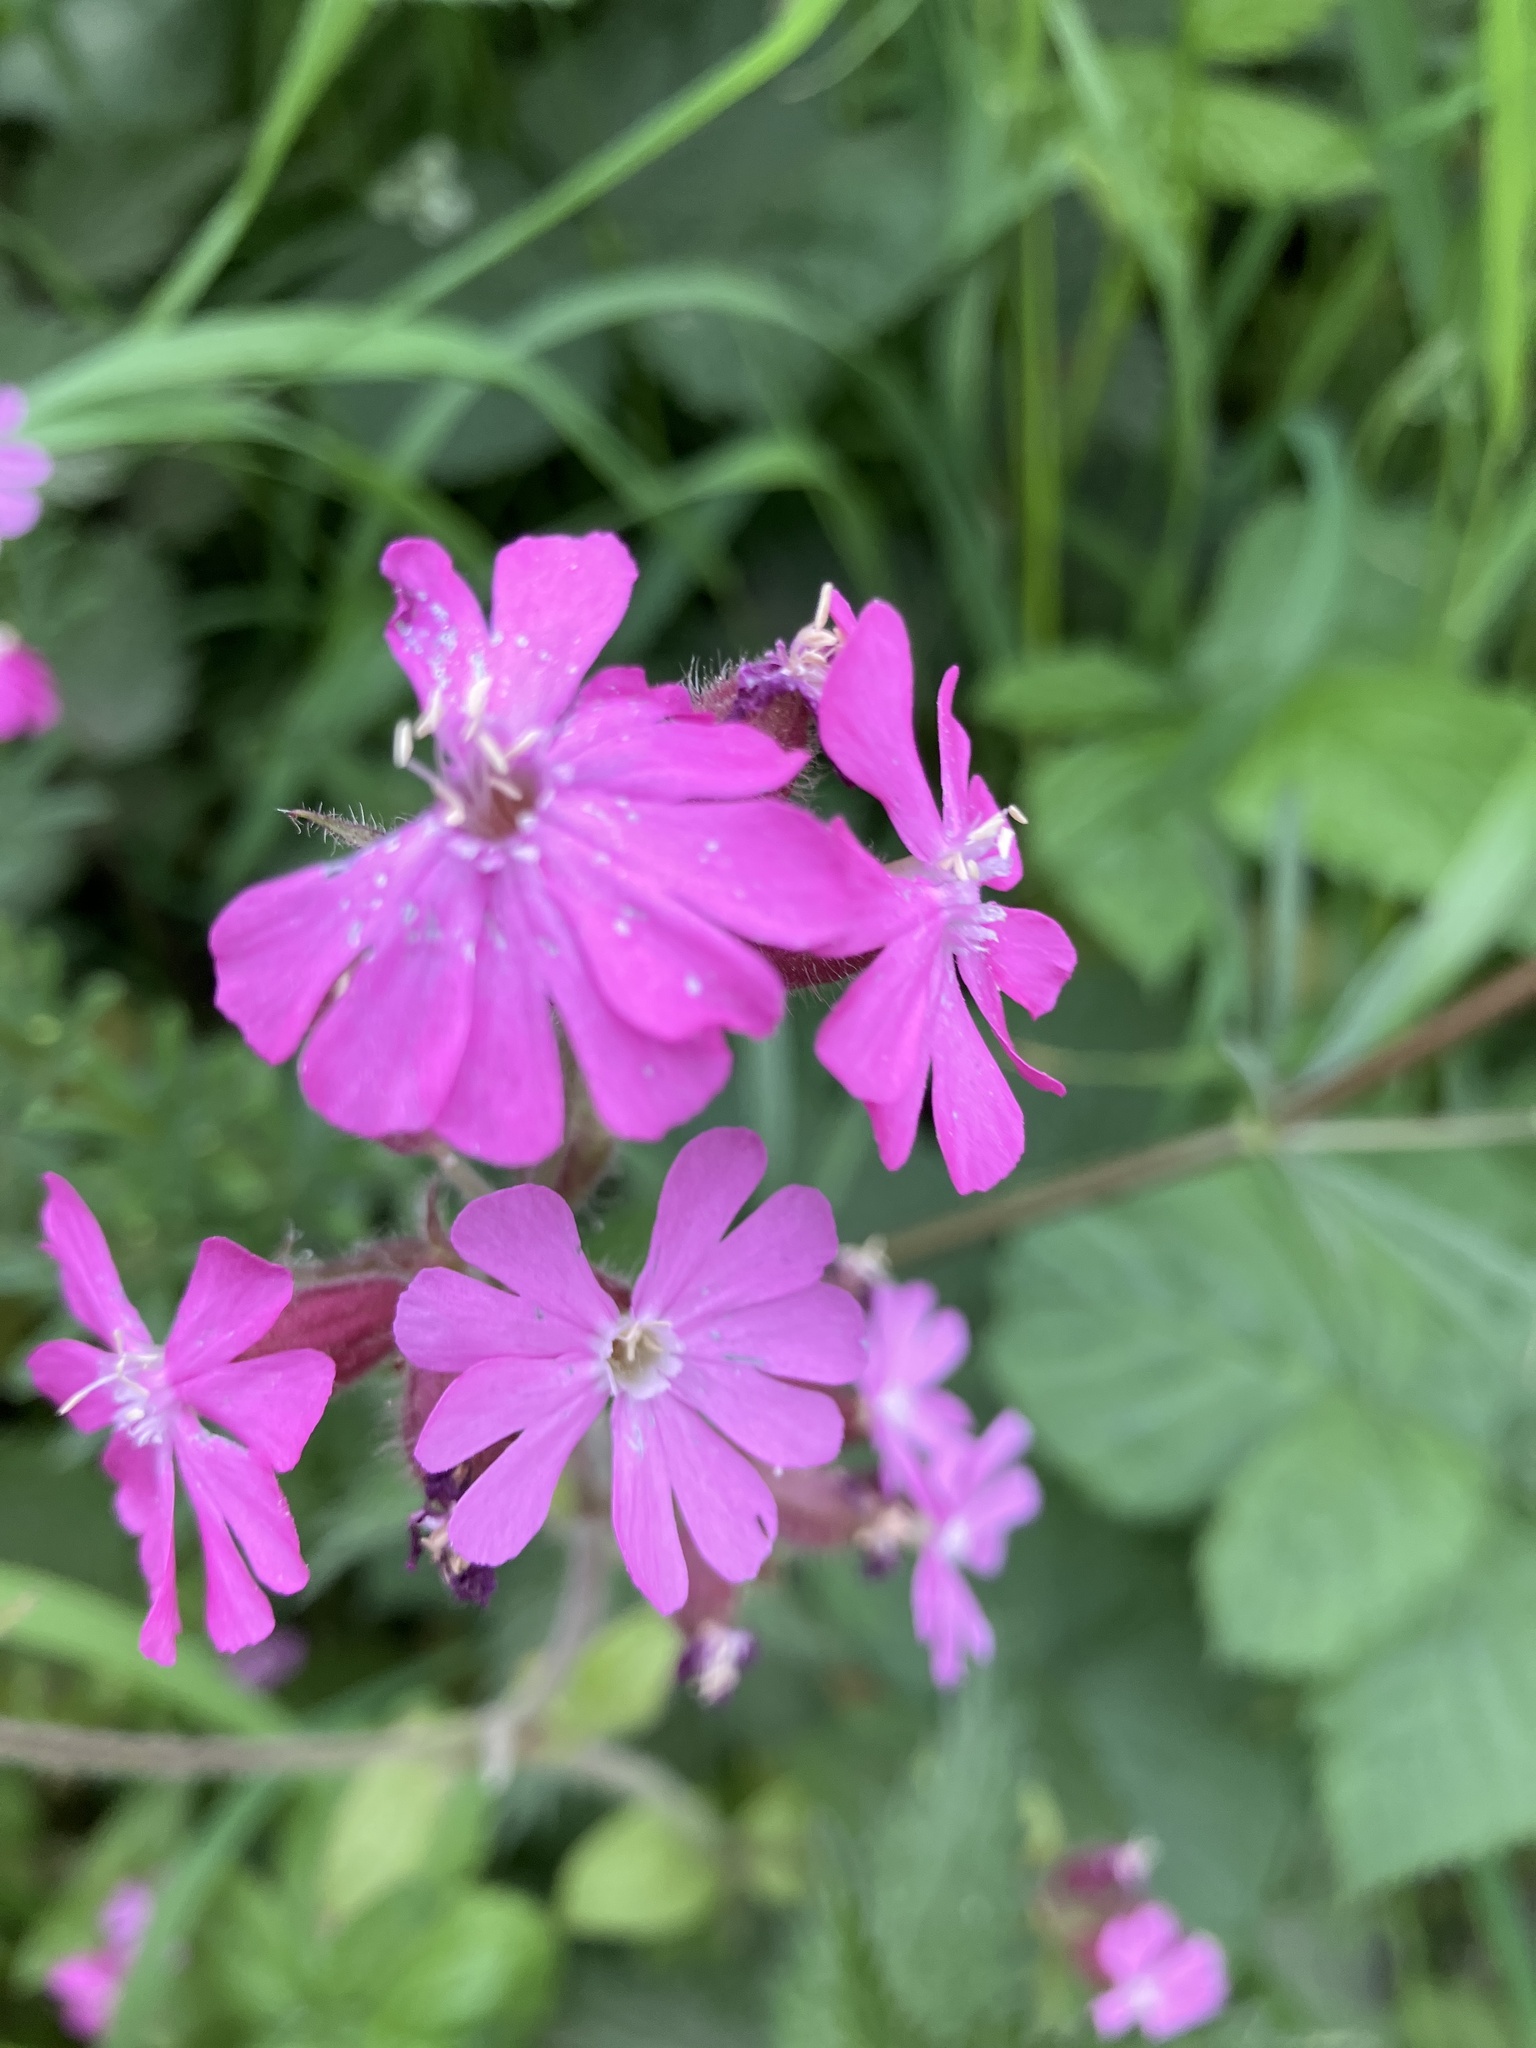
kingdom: Plantae
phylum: Tracheophyta
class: Magnoliopsida
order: Caryophyllales
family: Caryophyllaceae
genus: Silene
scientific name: Silene dioica
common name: Red campion
